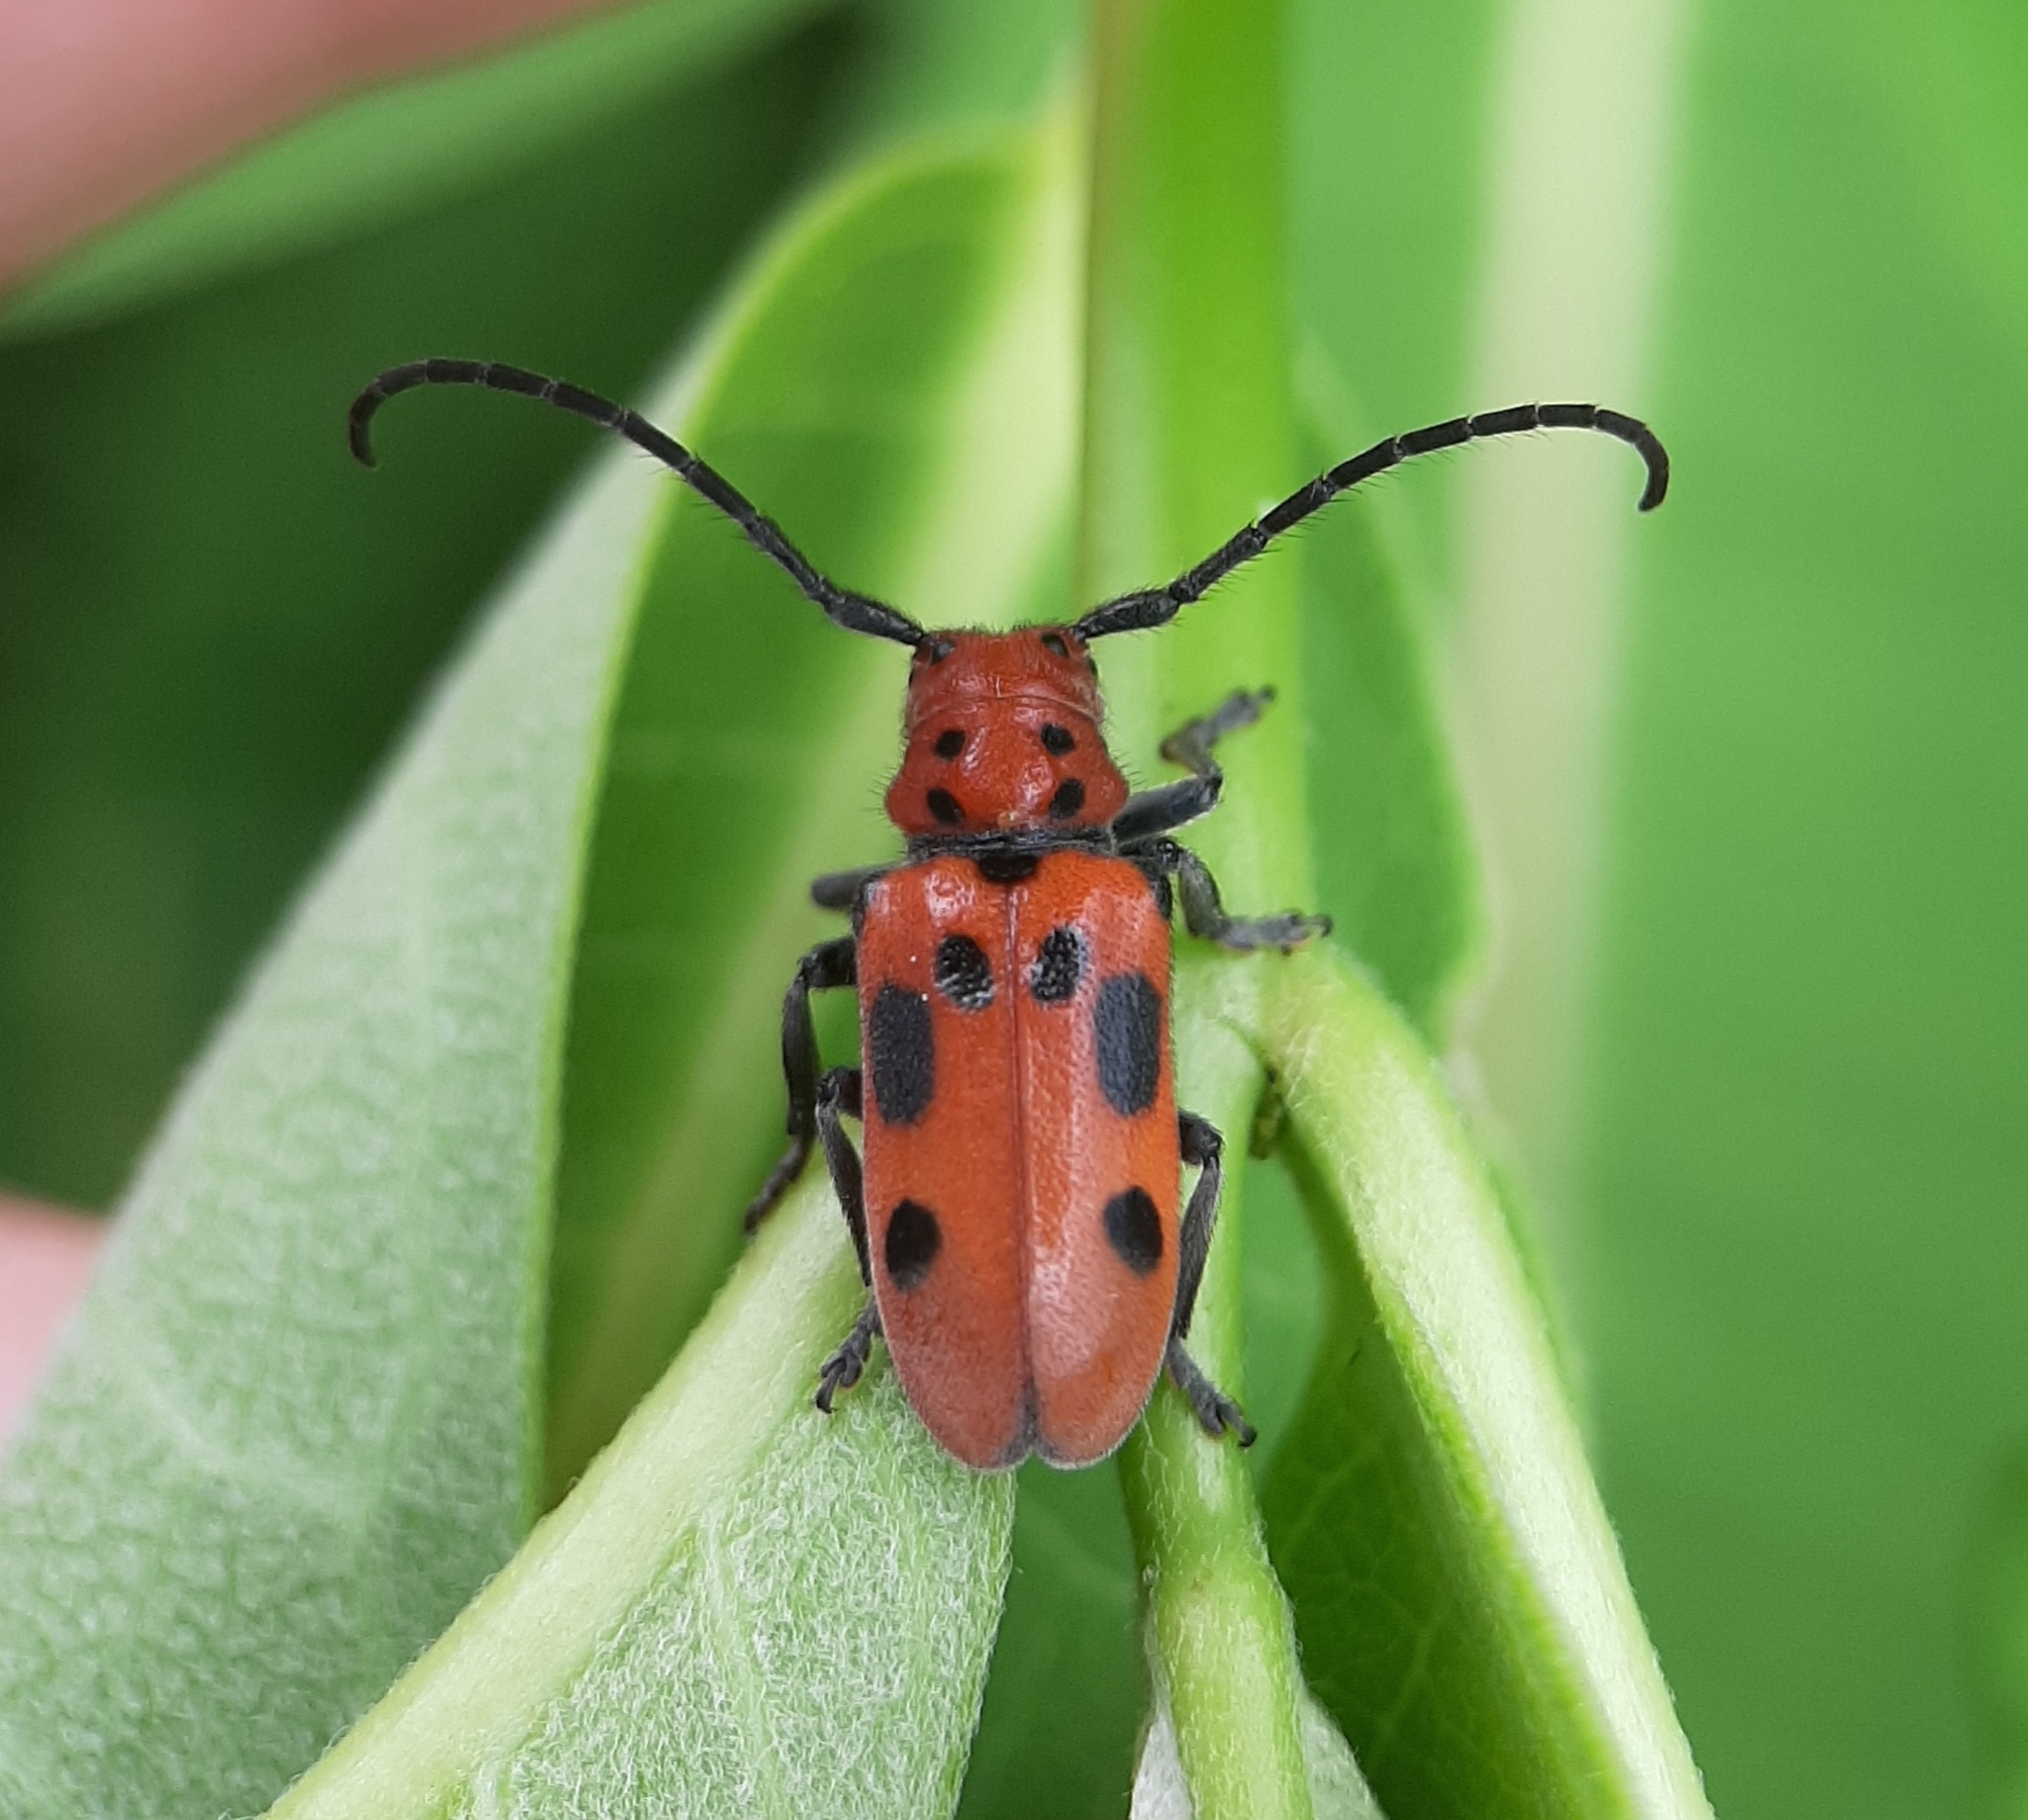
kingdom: Animalia
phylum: Arthropoda
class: Insecta
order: Coleoptera
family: Cerambycidae
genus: Tetraopes
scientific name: Tetraopes tetrophthalmus
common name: Red milkweed beetle
